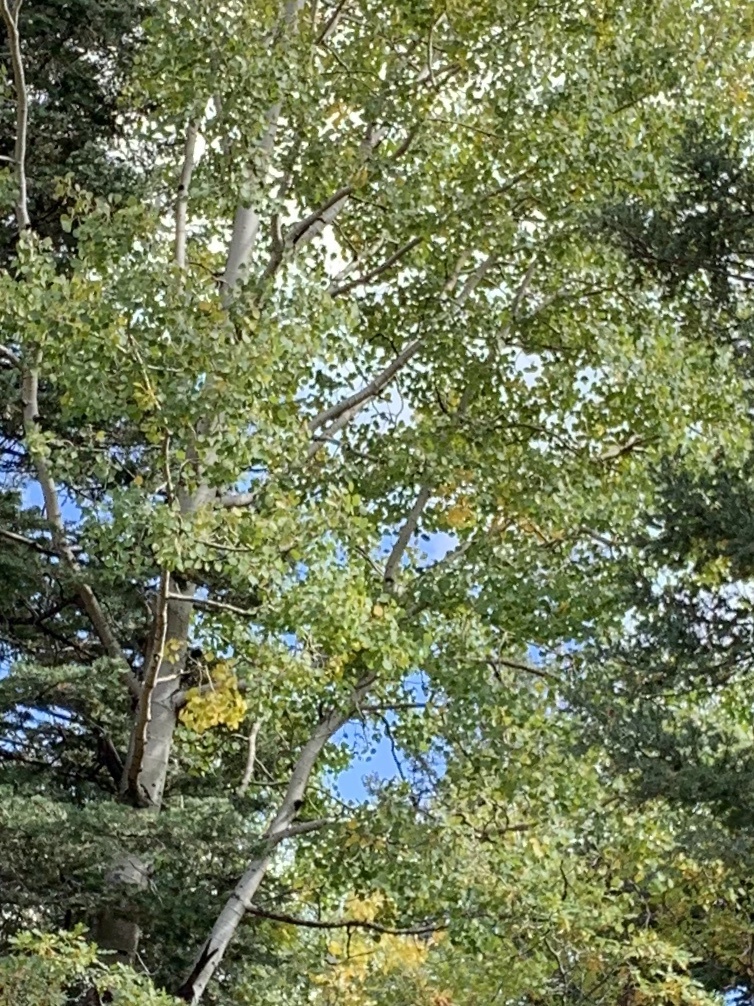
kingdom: Plantae
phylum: Tracheophyta
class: Magnoliopsida
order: Malpighiales
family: Salicaceae
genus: Populus
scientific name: Populus tremuloides
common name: Quaking aspen
